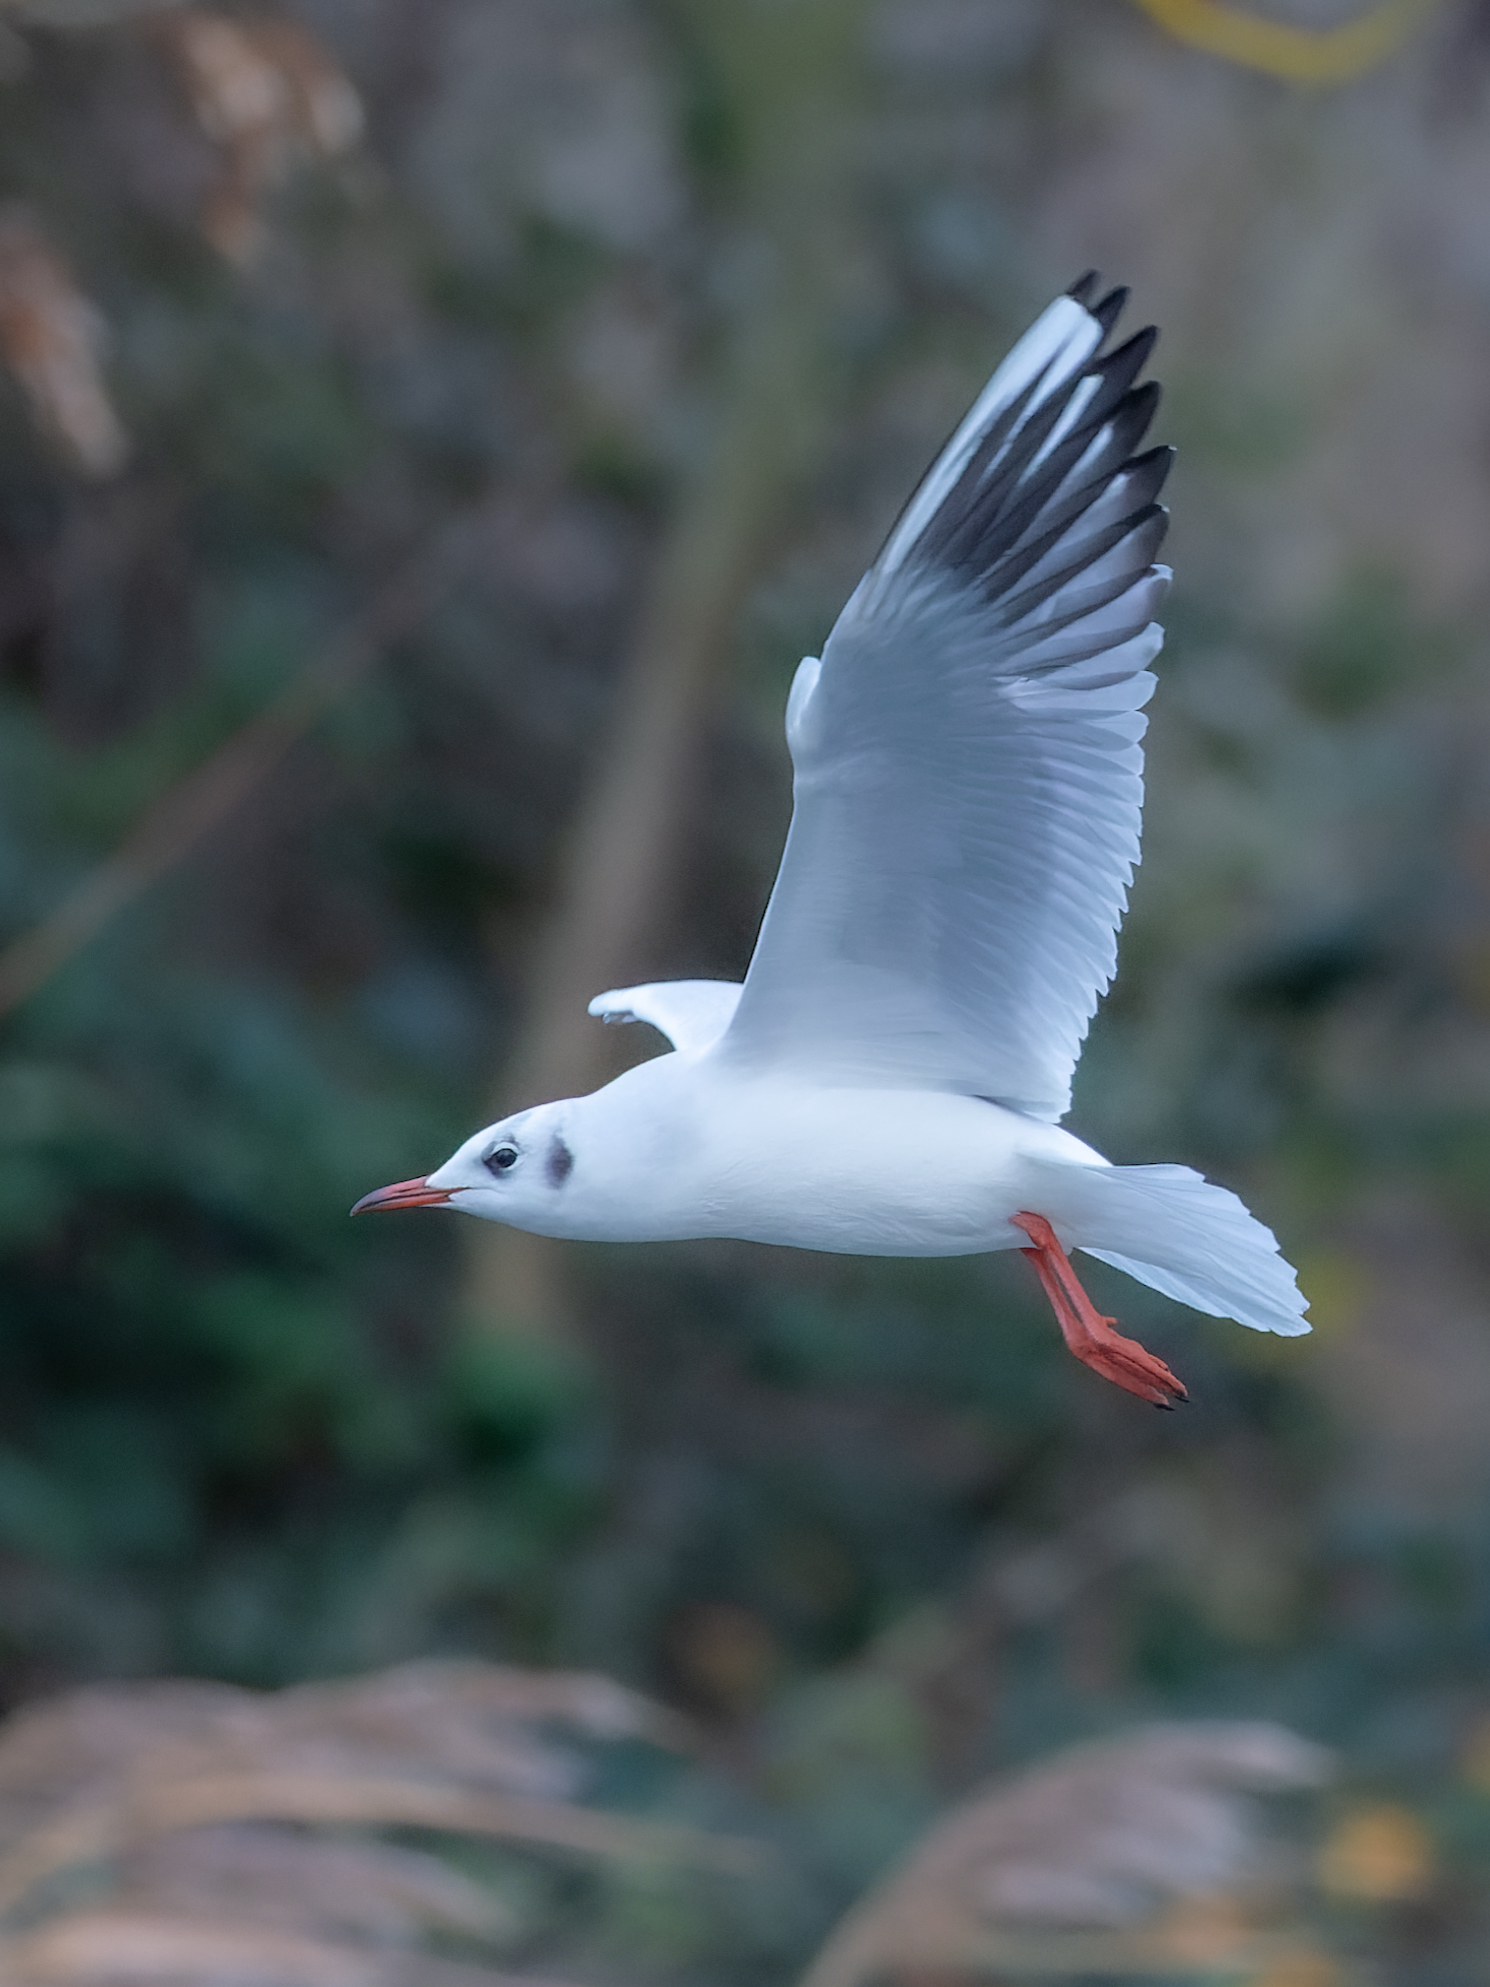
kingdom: Animalia
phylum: Chordata
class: Aves
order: Charadriiformes
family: Laridae
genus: Chroicocephalus
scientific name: Chroicocephalus ridibundus
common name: Black-headed gull
